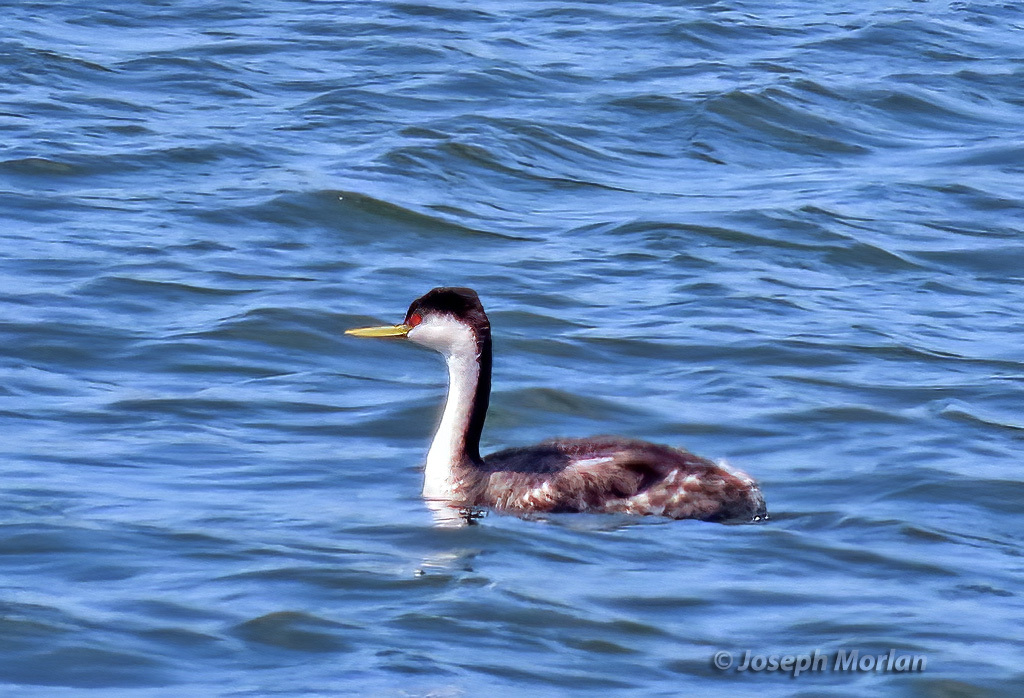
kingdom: Animalia
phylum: Chordata
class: Aves
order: Podicipediformes
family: Podicipedidae
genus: Aechmophorus
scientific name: Aechmophorus occidentalis
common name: Western grebe
